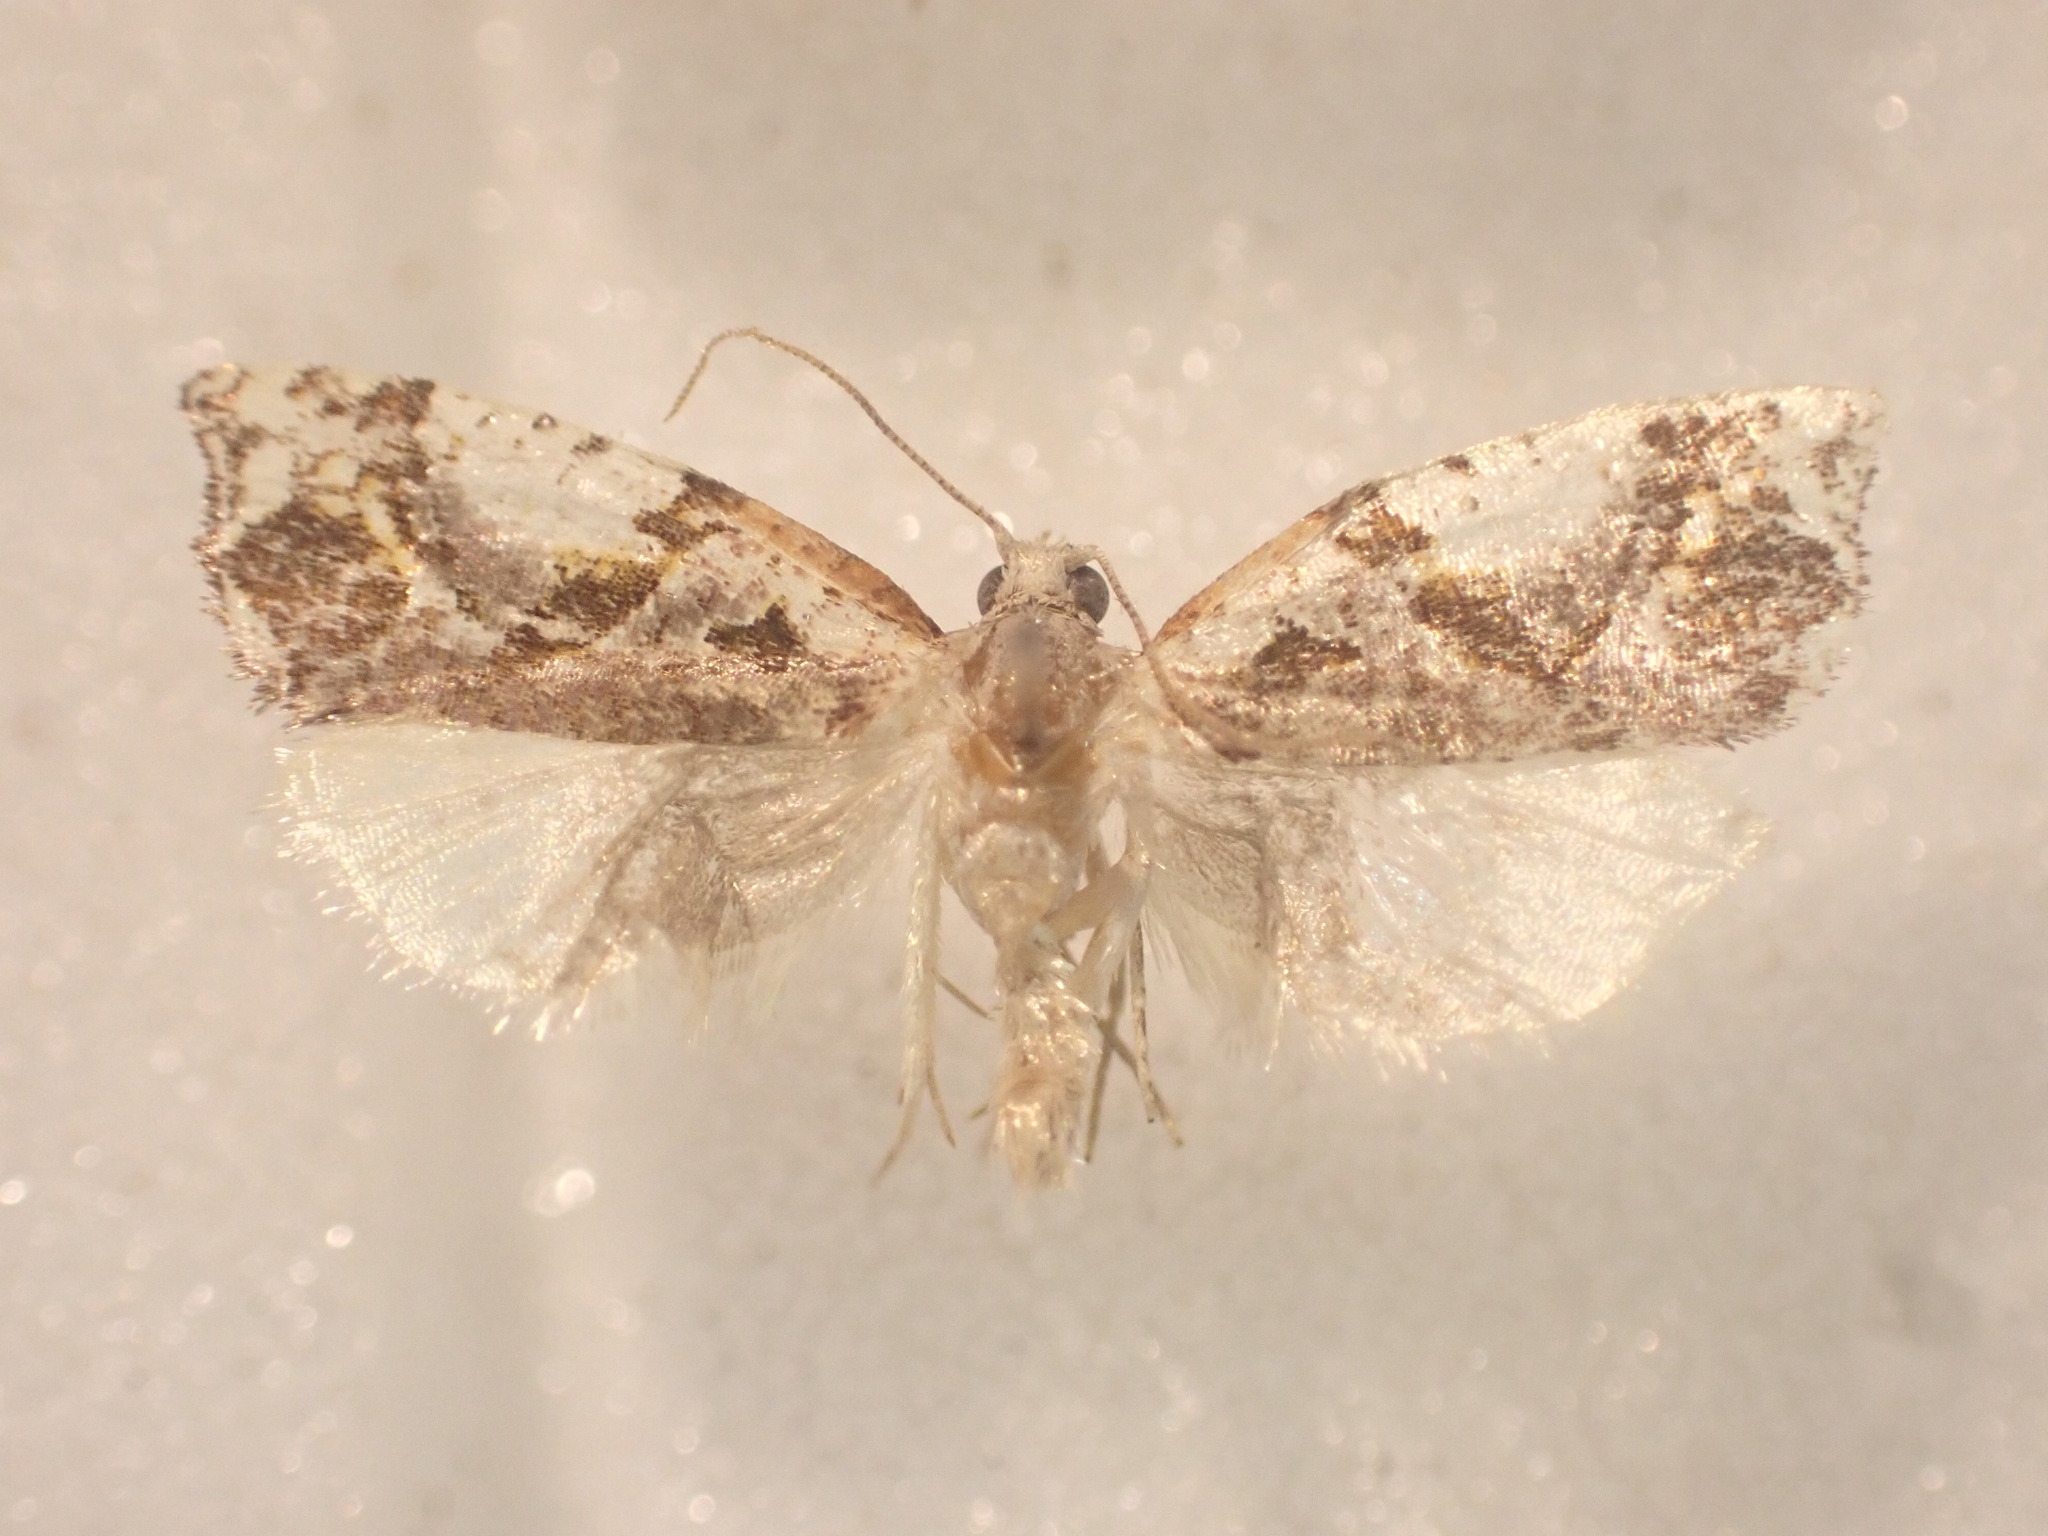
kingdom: Animalia
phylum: Arthropoda
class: Insecta
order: Lepidoptera
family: Tortricidae
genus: Pyrgotis
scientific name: Pyrgotis plagiatana
